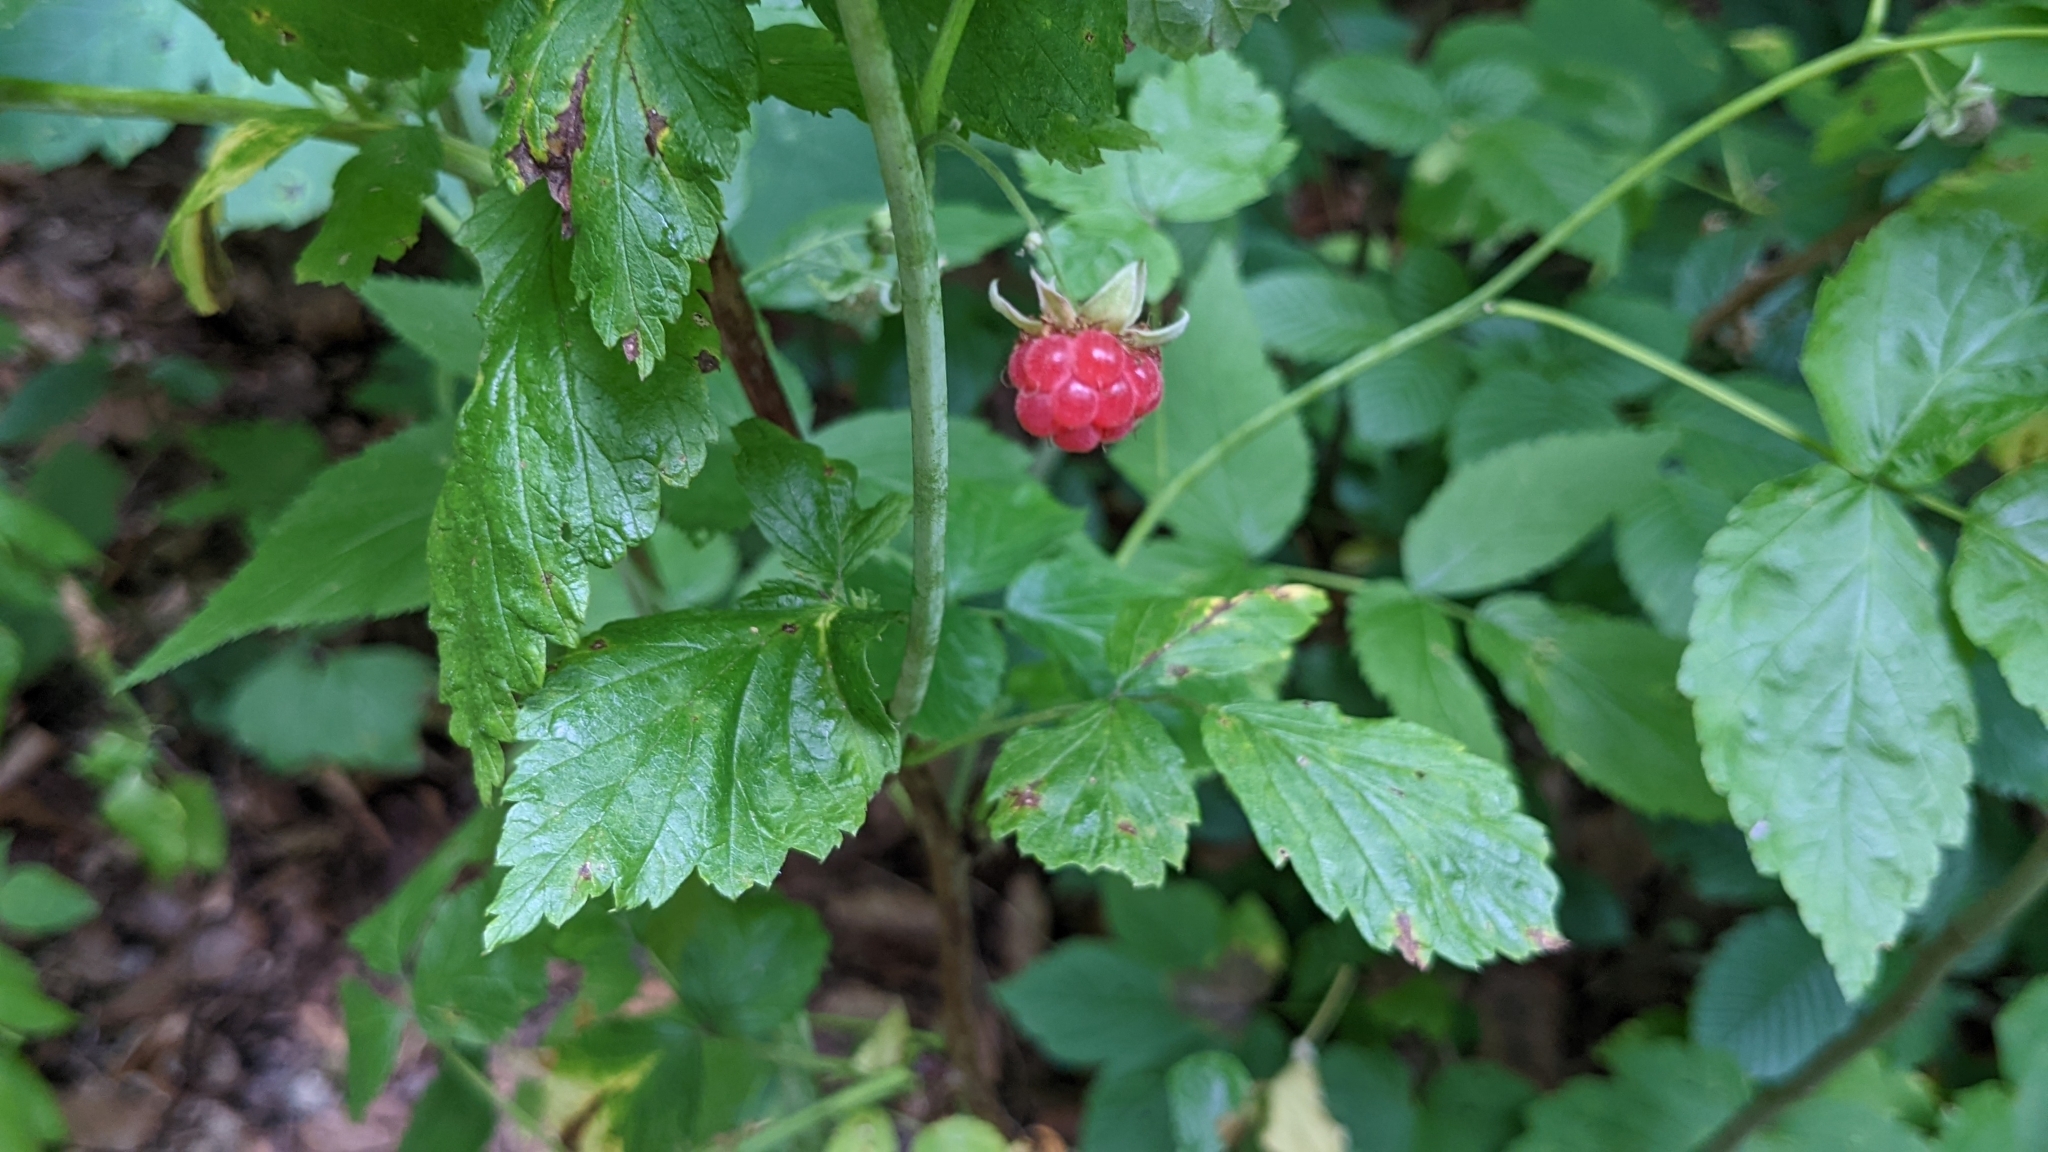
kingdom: Plantae
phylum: Tracheophyta
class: Magnoliopsida
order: Rosales
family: Rosaceae
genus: Rubus
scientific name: Rubus idaeus
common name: Raspberry
